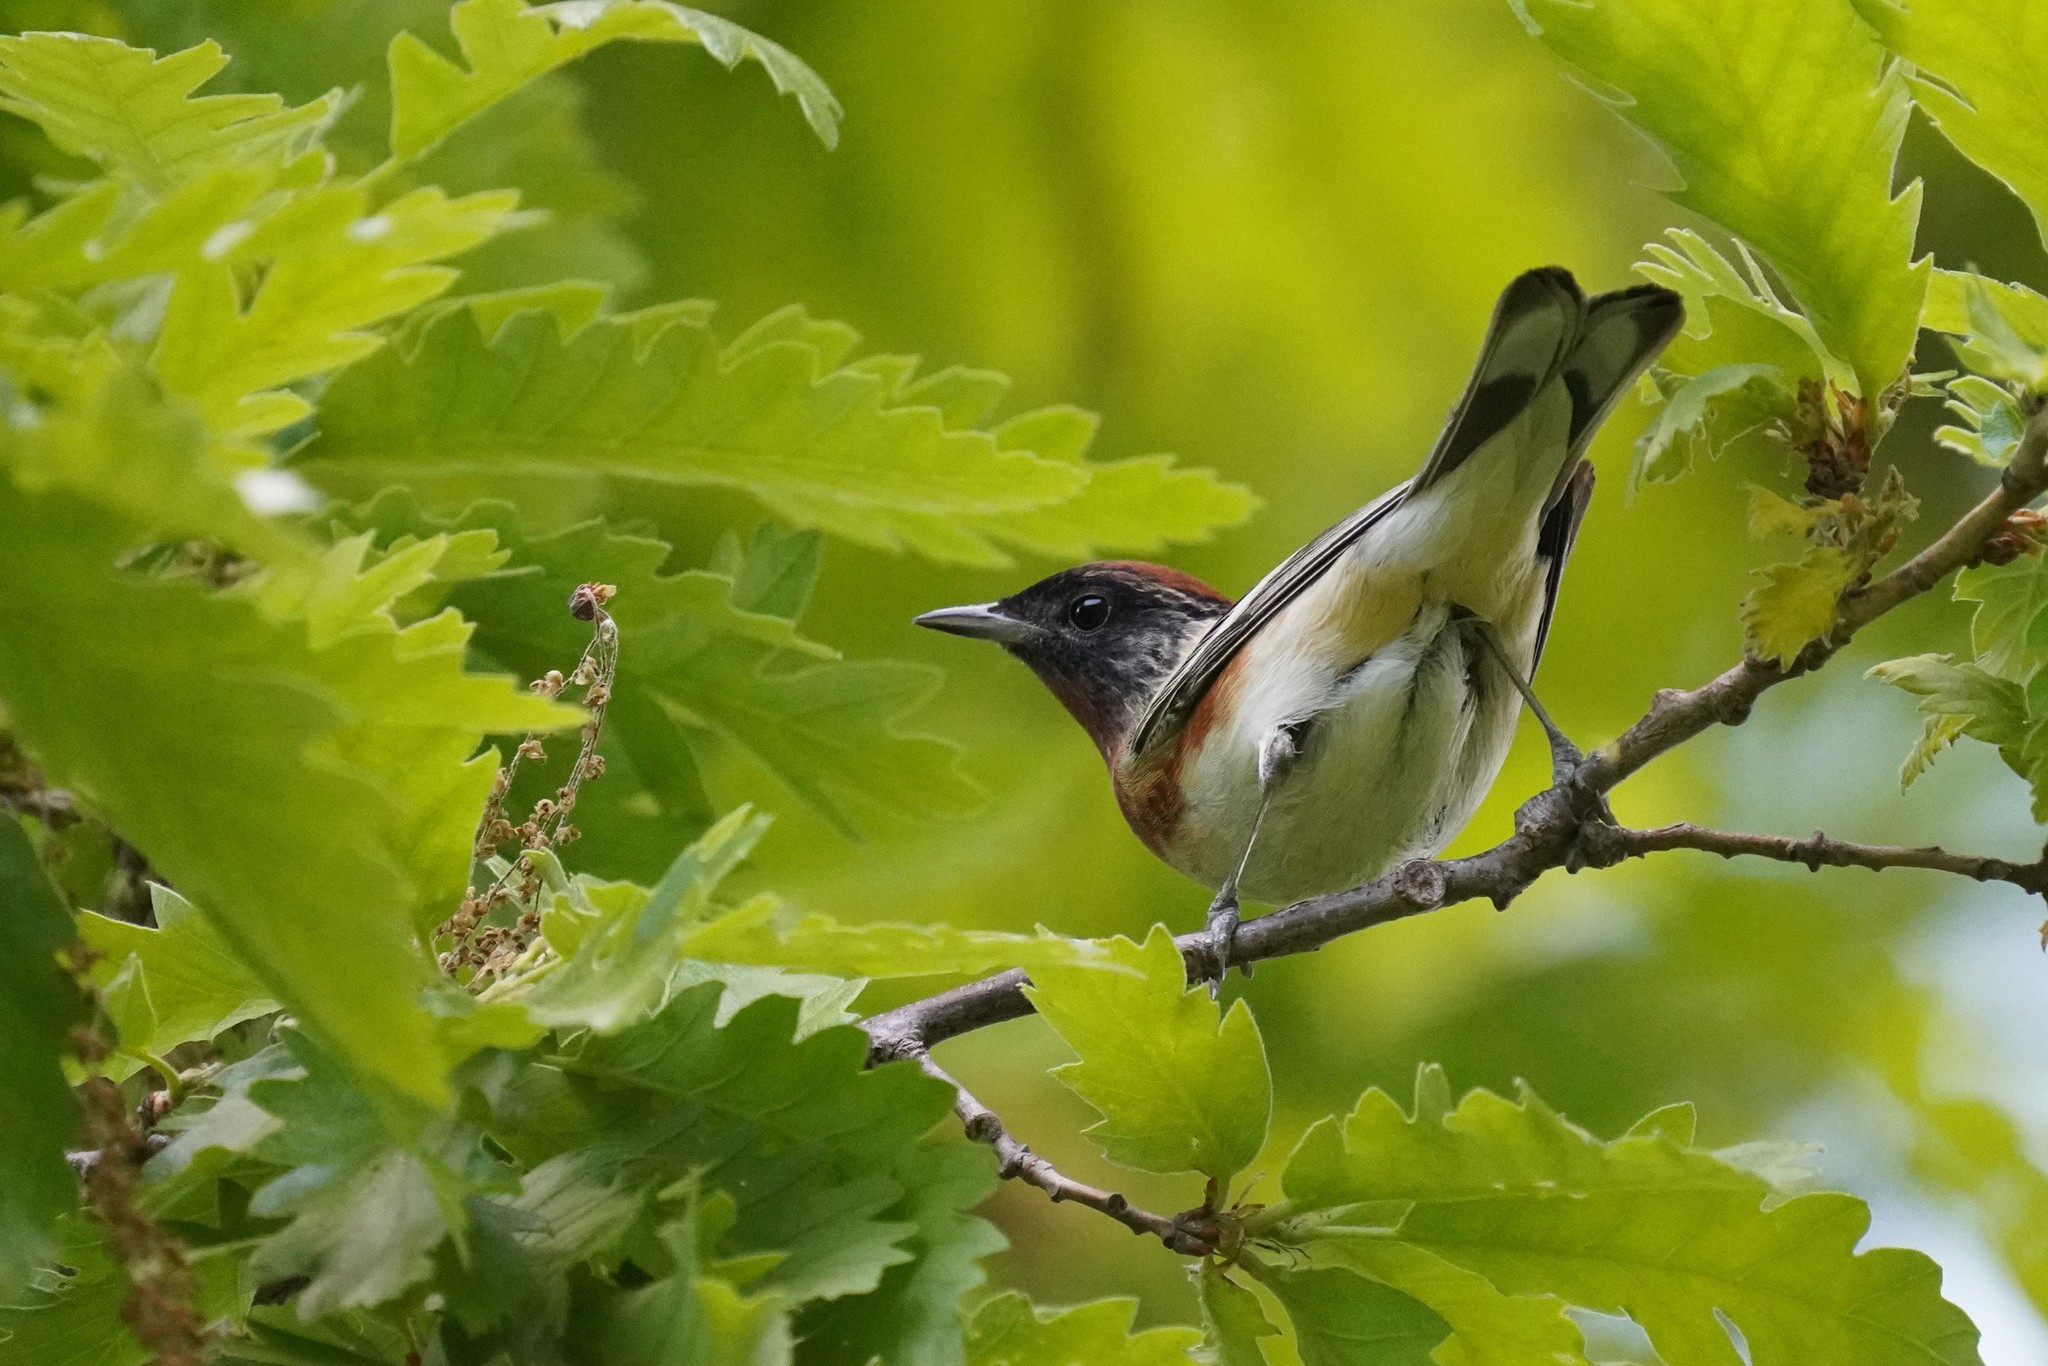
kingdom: Animalia
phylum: Chordata
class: Aves
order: Passeriformes
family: Parulidae
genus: Setophaga
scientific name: Setophaga castanea
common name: Bay-breasted warbler
